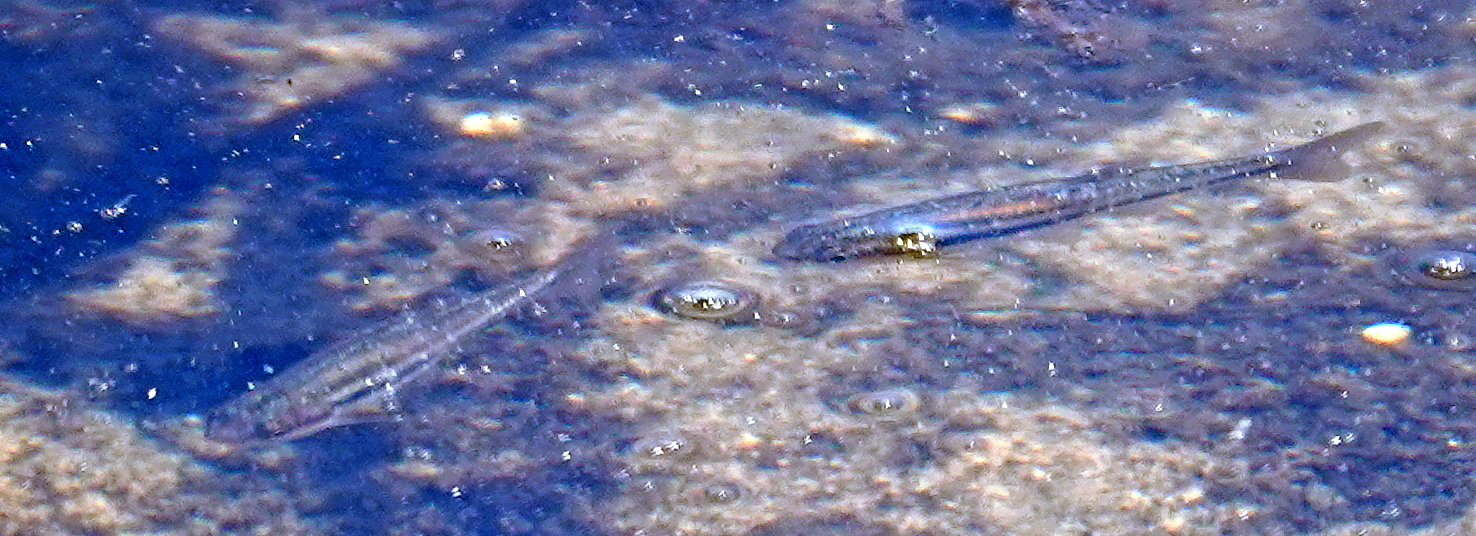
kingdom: Animalia
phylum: Chordata
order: Cypriniformes
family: Cyprinidae
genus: Chrosomus
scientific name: Chrosomus eos
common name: Northern redbelly dace
